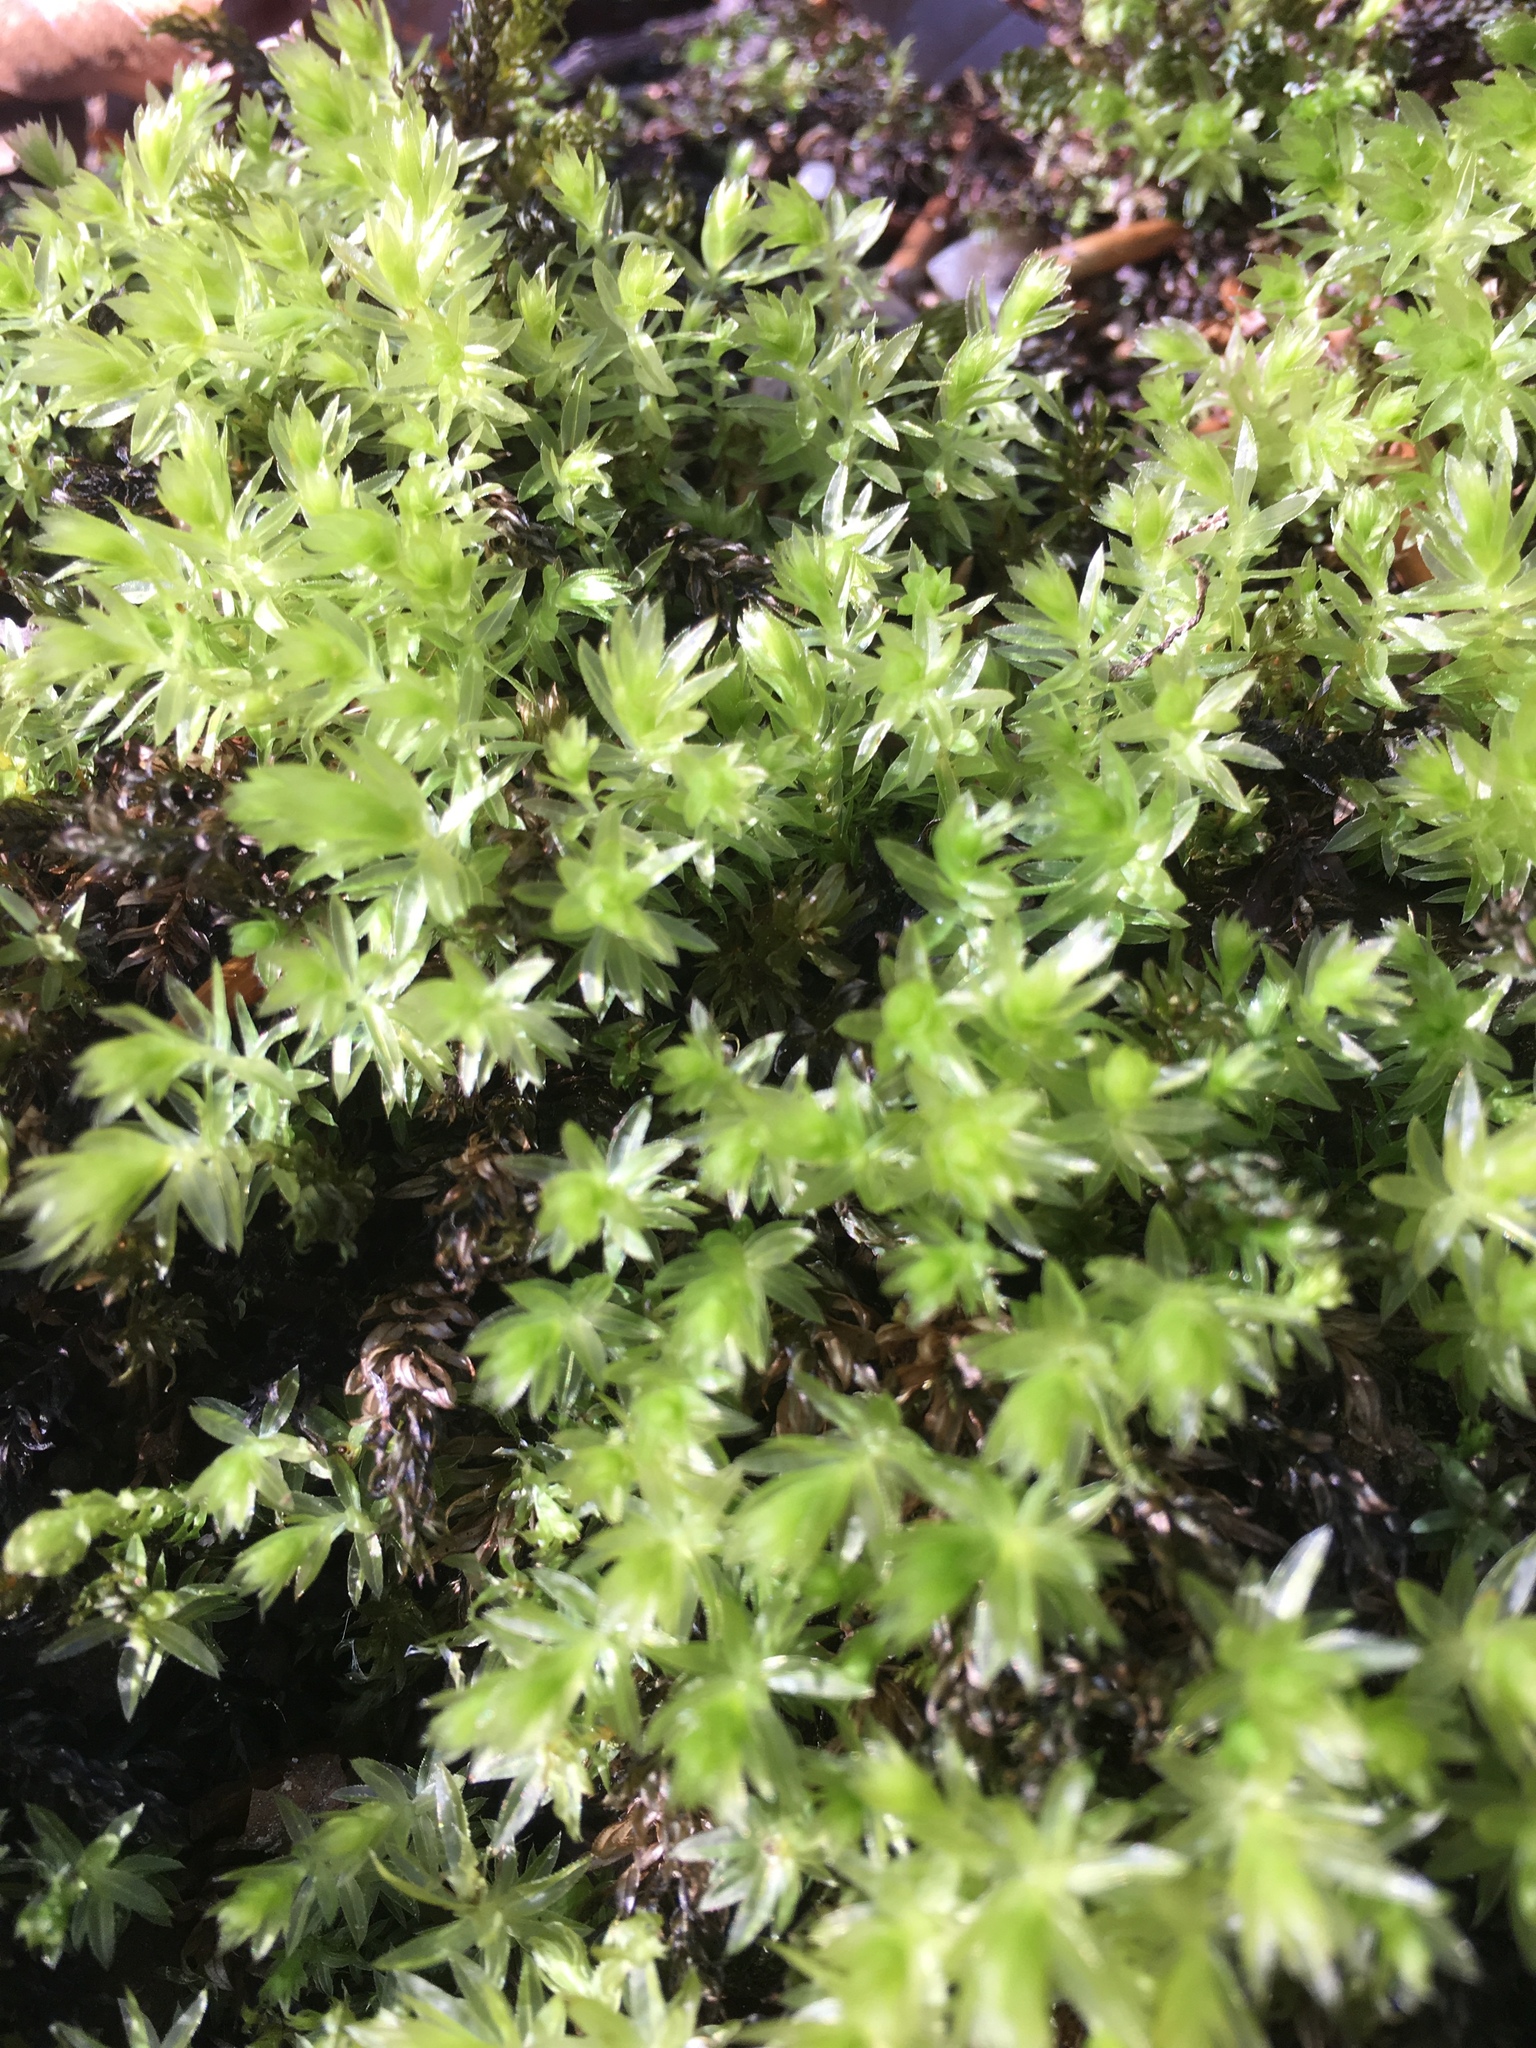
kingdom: Plantae
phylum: Bryophyta
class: Bryopsida
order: Bryales
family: Mniaceae
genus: Mnium
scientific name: Mnium hornum
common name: Swan's-neck leafy moss
